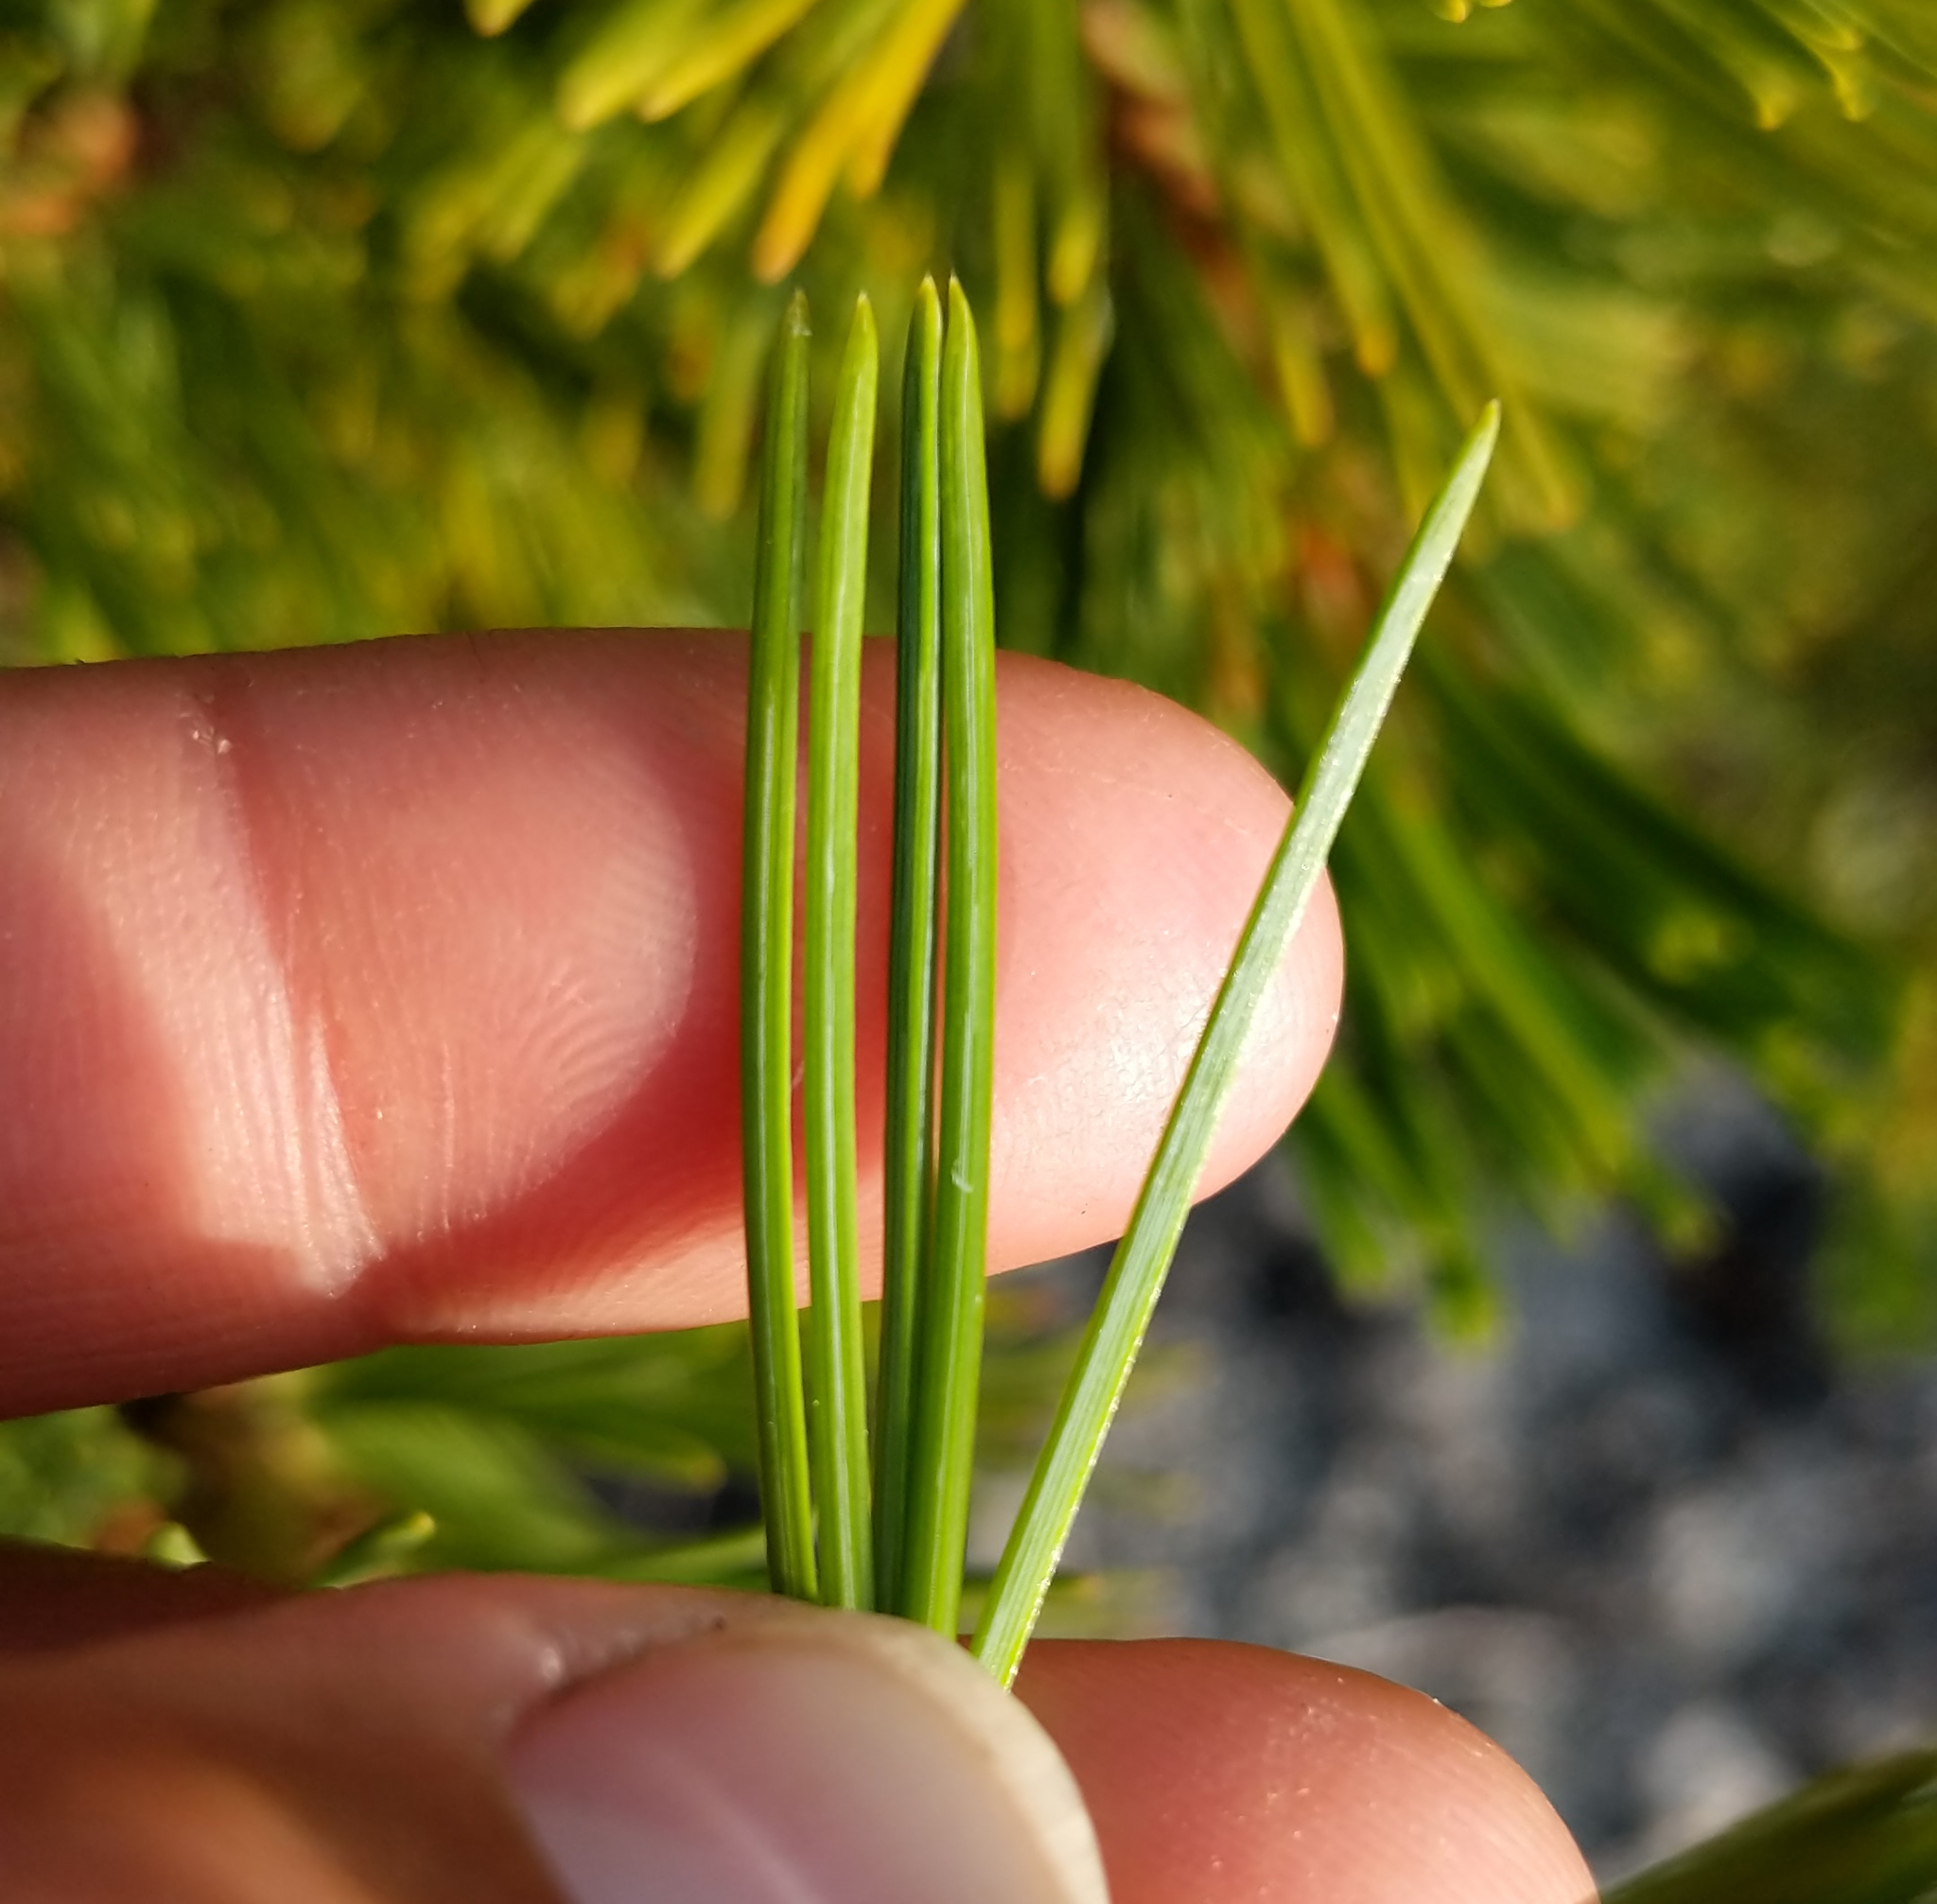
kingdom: Plantae
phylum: Tracheophyta
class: Pinopsida
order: Pinales
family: Pinaceae
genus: Pinus
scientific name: Pinus albicaulis
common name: Whitebark pine
